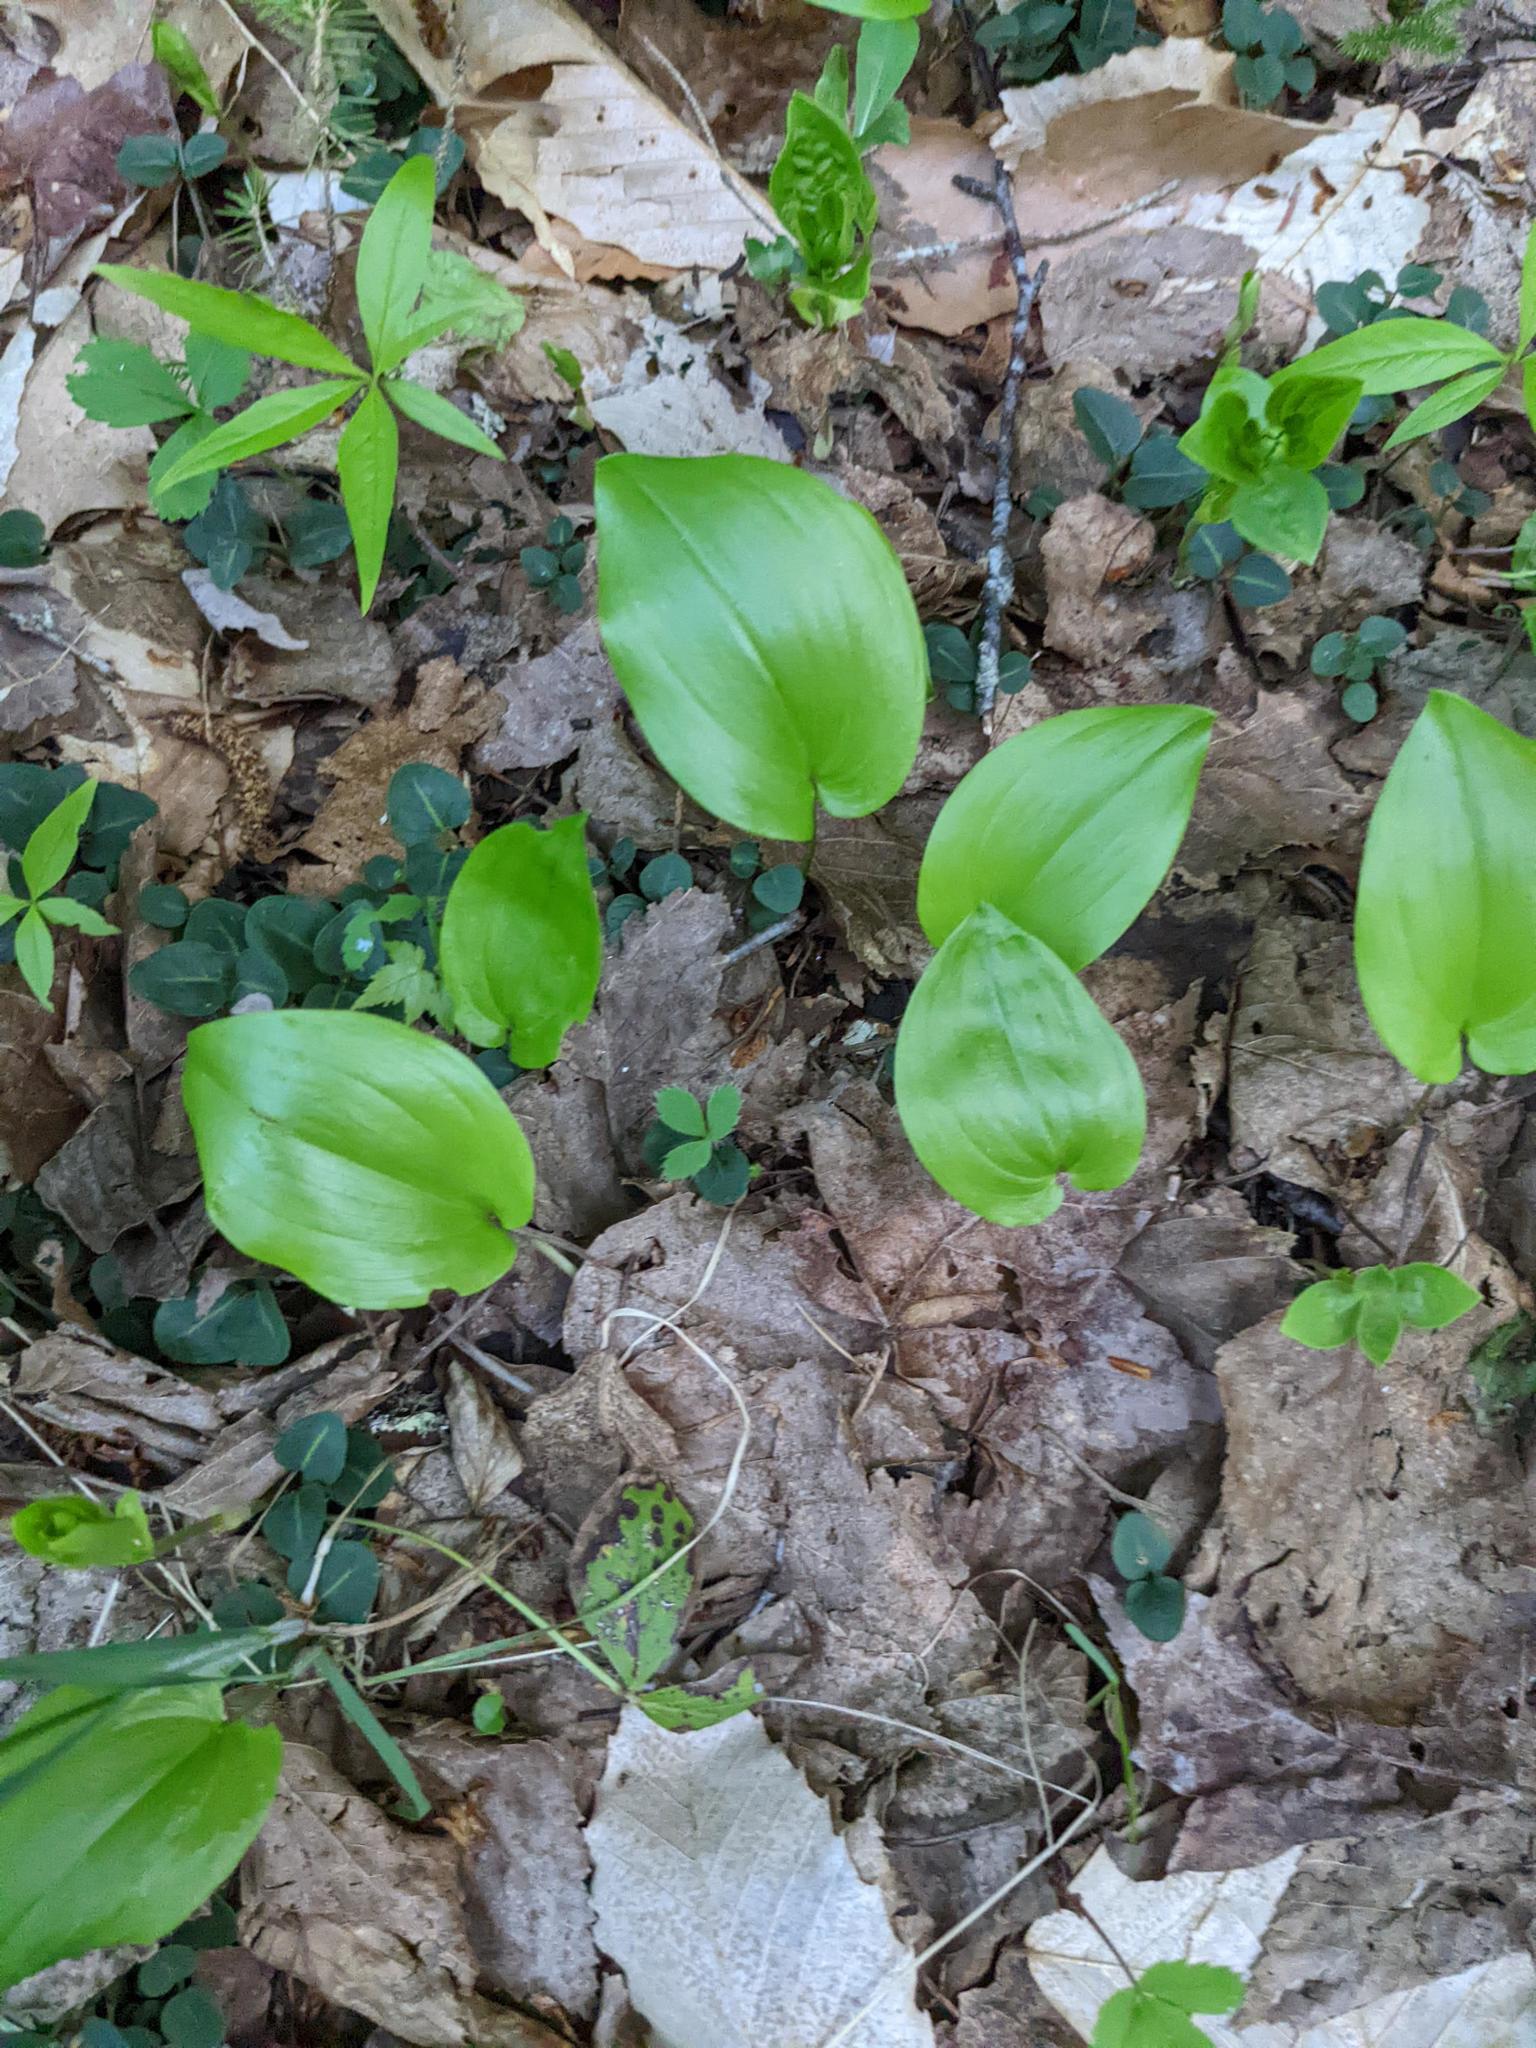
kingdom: Plantae
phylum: Tracheophyta
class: Liliopsida
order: Asparagales
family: Asparagaceae
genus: Maianthemum
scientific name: Maianthemum canadense
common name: False lily-of-the-valley
